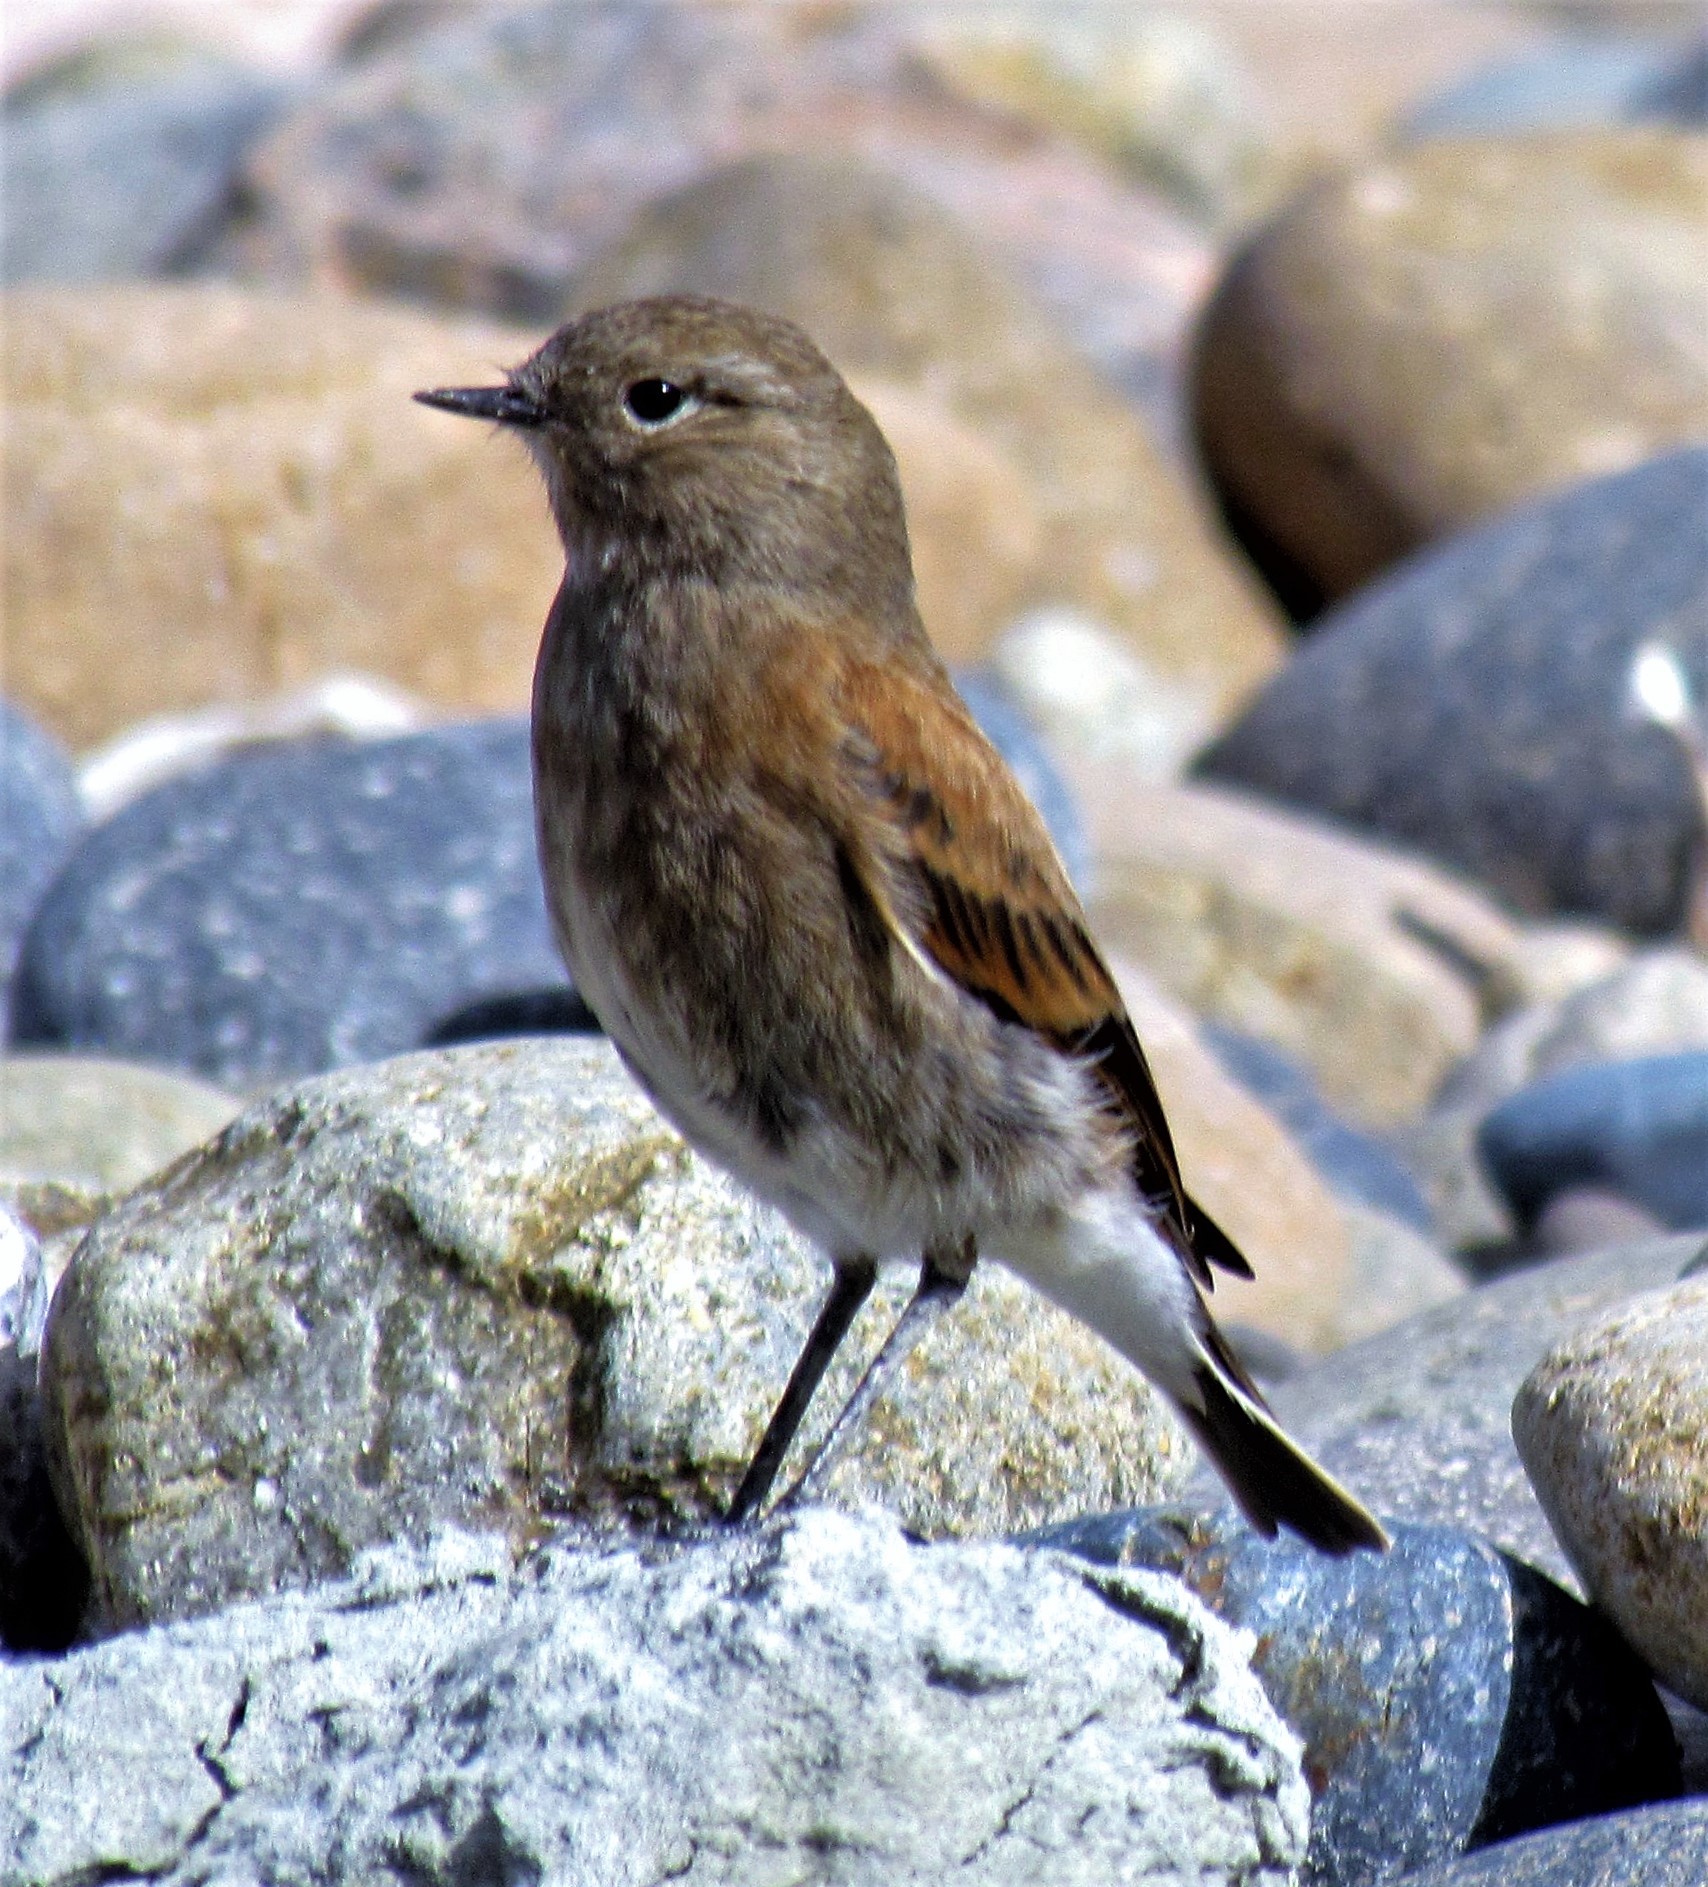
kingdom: Animalia
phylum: Chordata
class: Aves
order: Passeriformes
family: Tyrannidae
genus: Lessonia
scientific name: Lessonia rufa
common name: Austral negrito
